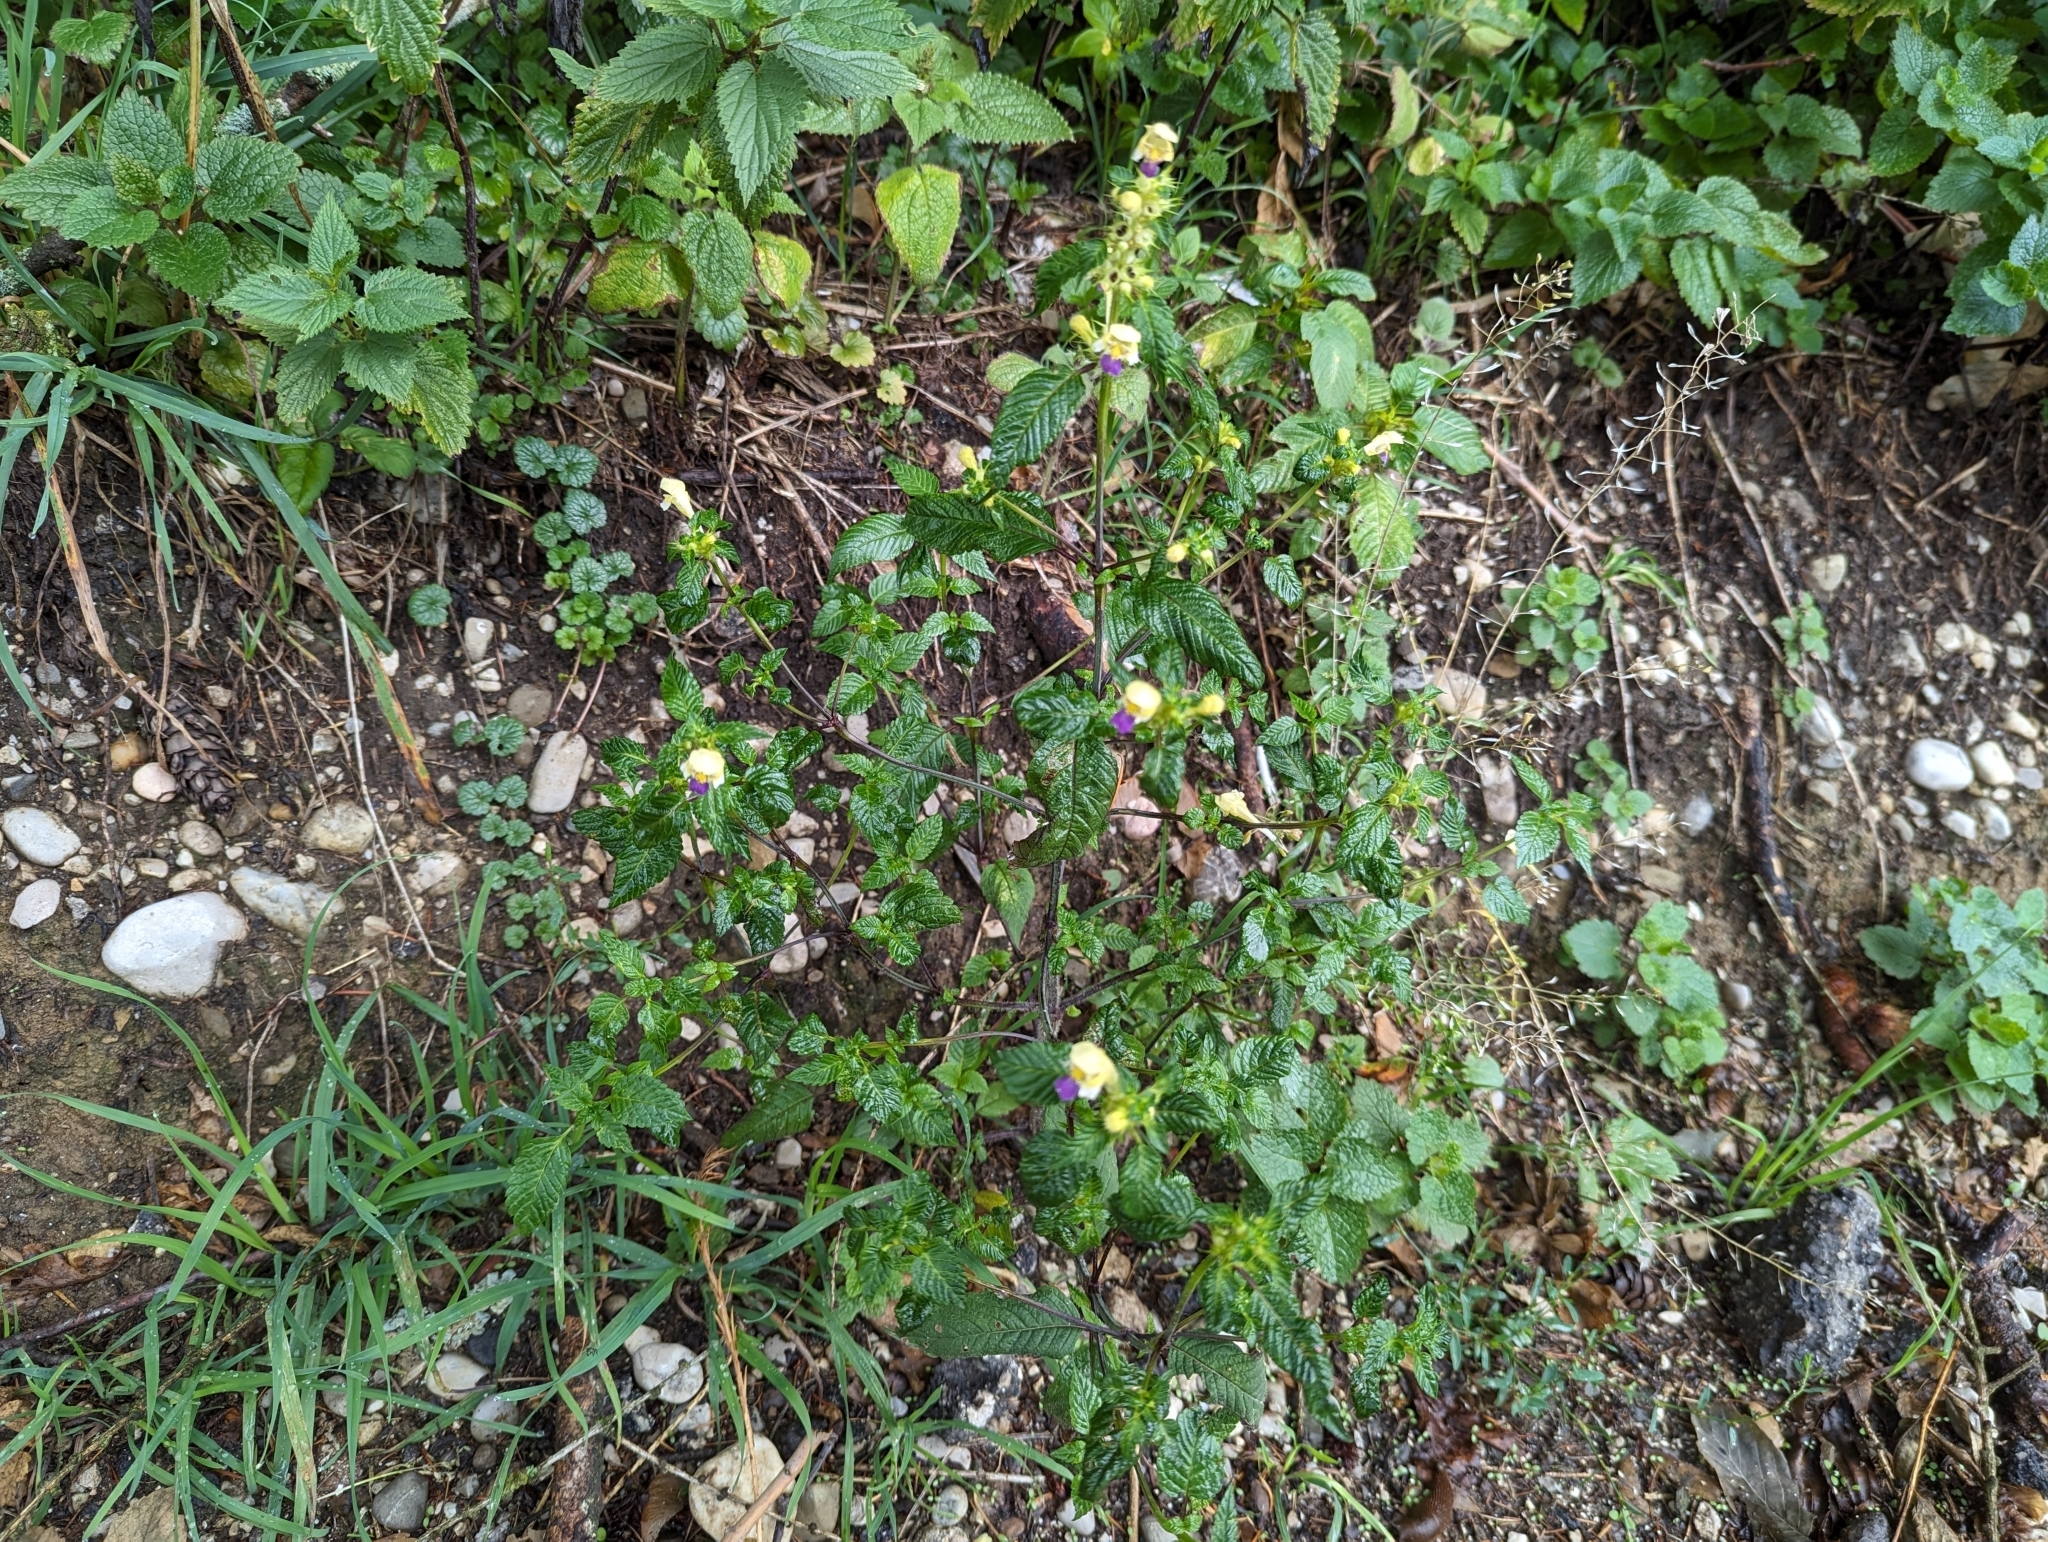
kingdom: Plantae
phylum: Tracheophyta
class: Magnoliopsida
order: Lamiales
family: Lamiaceae
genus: Galeopsis
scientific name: Galeopsis speciosa
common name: Large-flowered hemp-nettle
